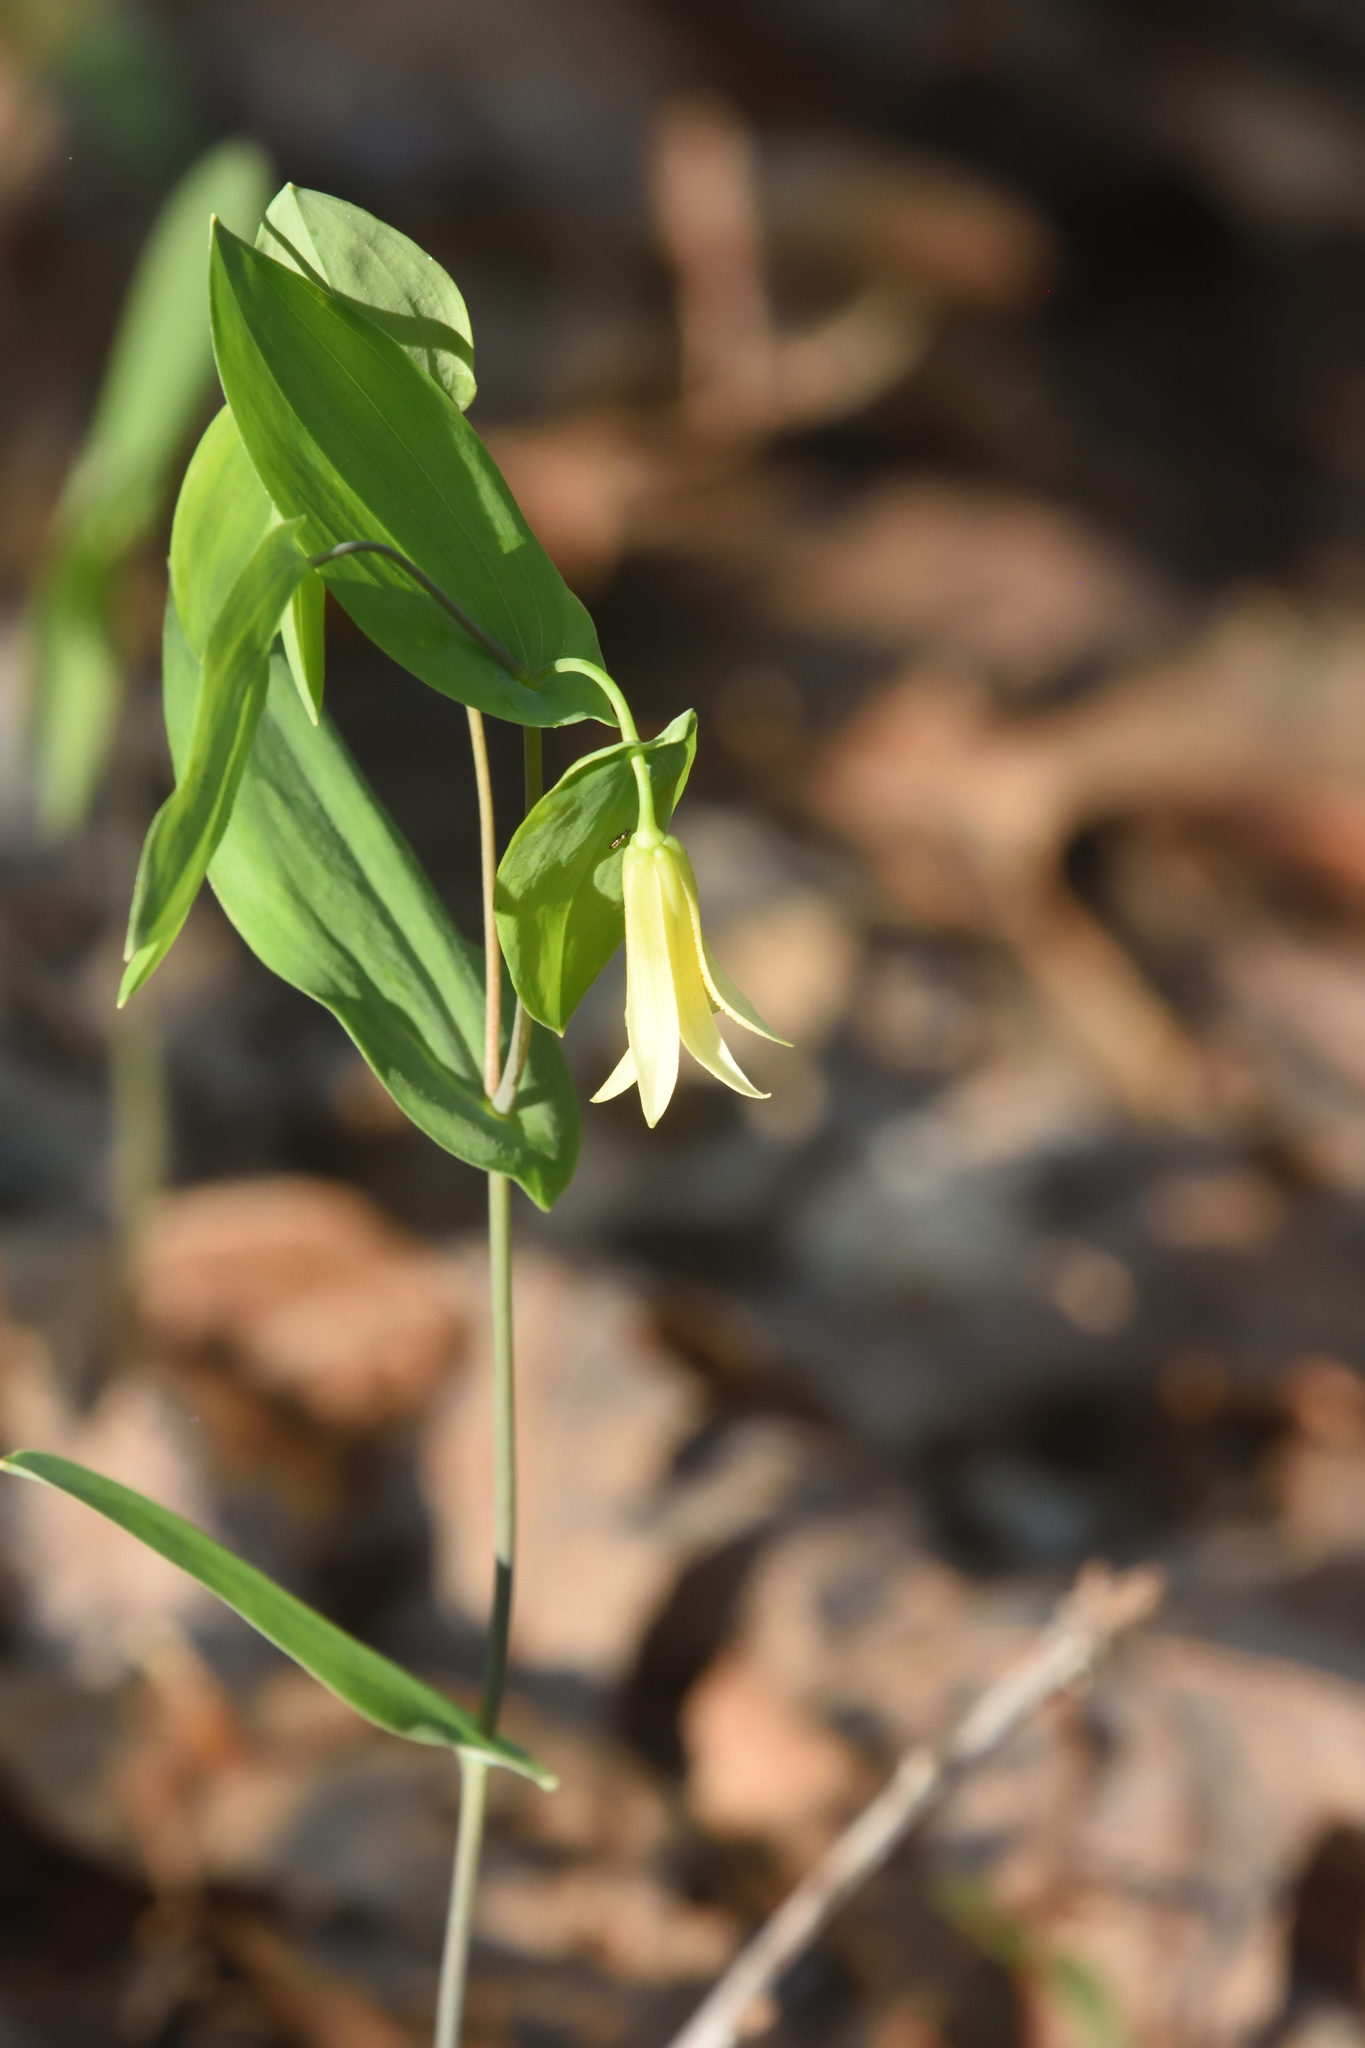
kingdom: Plantae
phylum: Tracheophyta
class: Liliopsida
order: Liliales
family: Colchicaceae
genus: Uvularia
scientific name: Uvularia perfoliata
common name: Perfoliate bellwort
